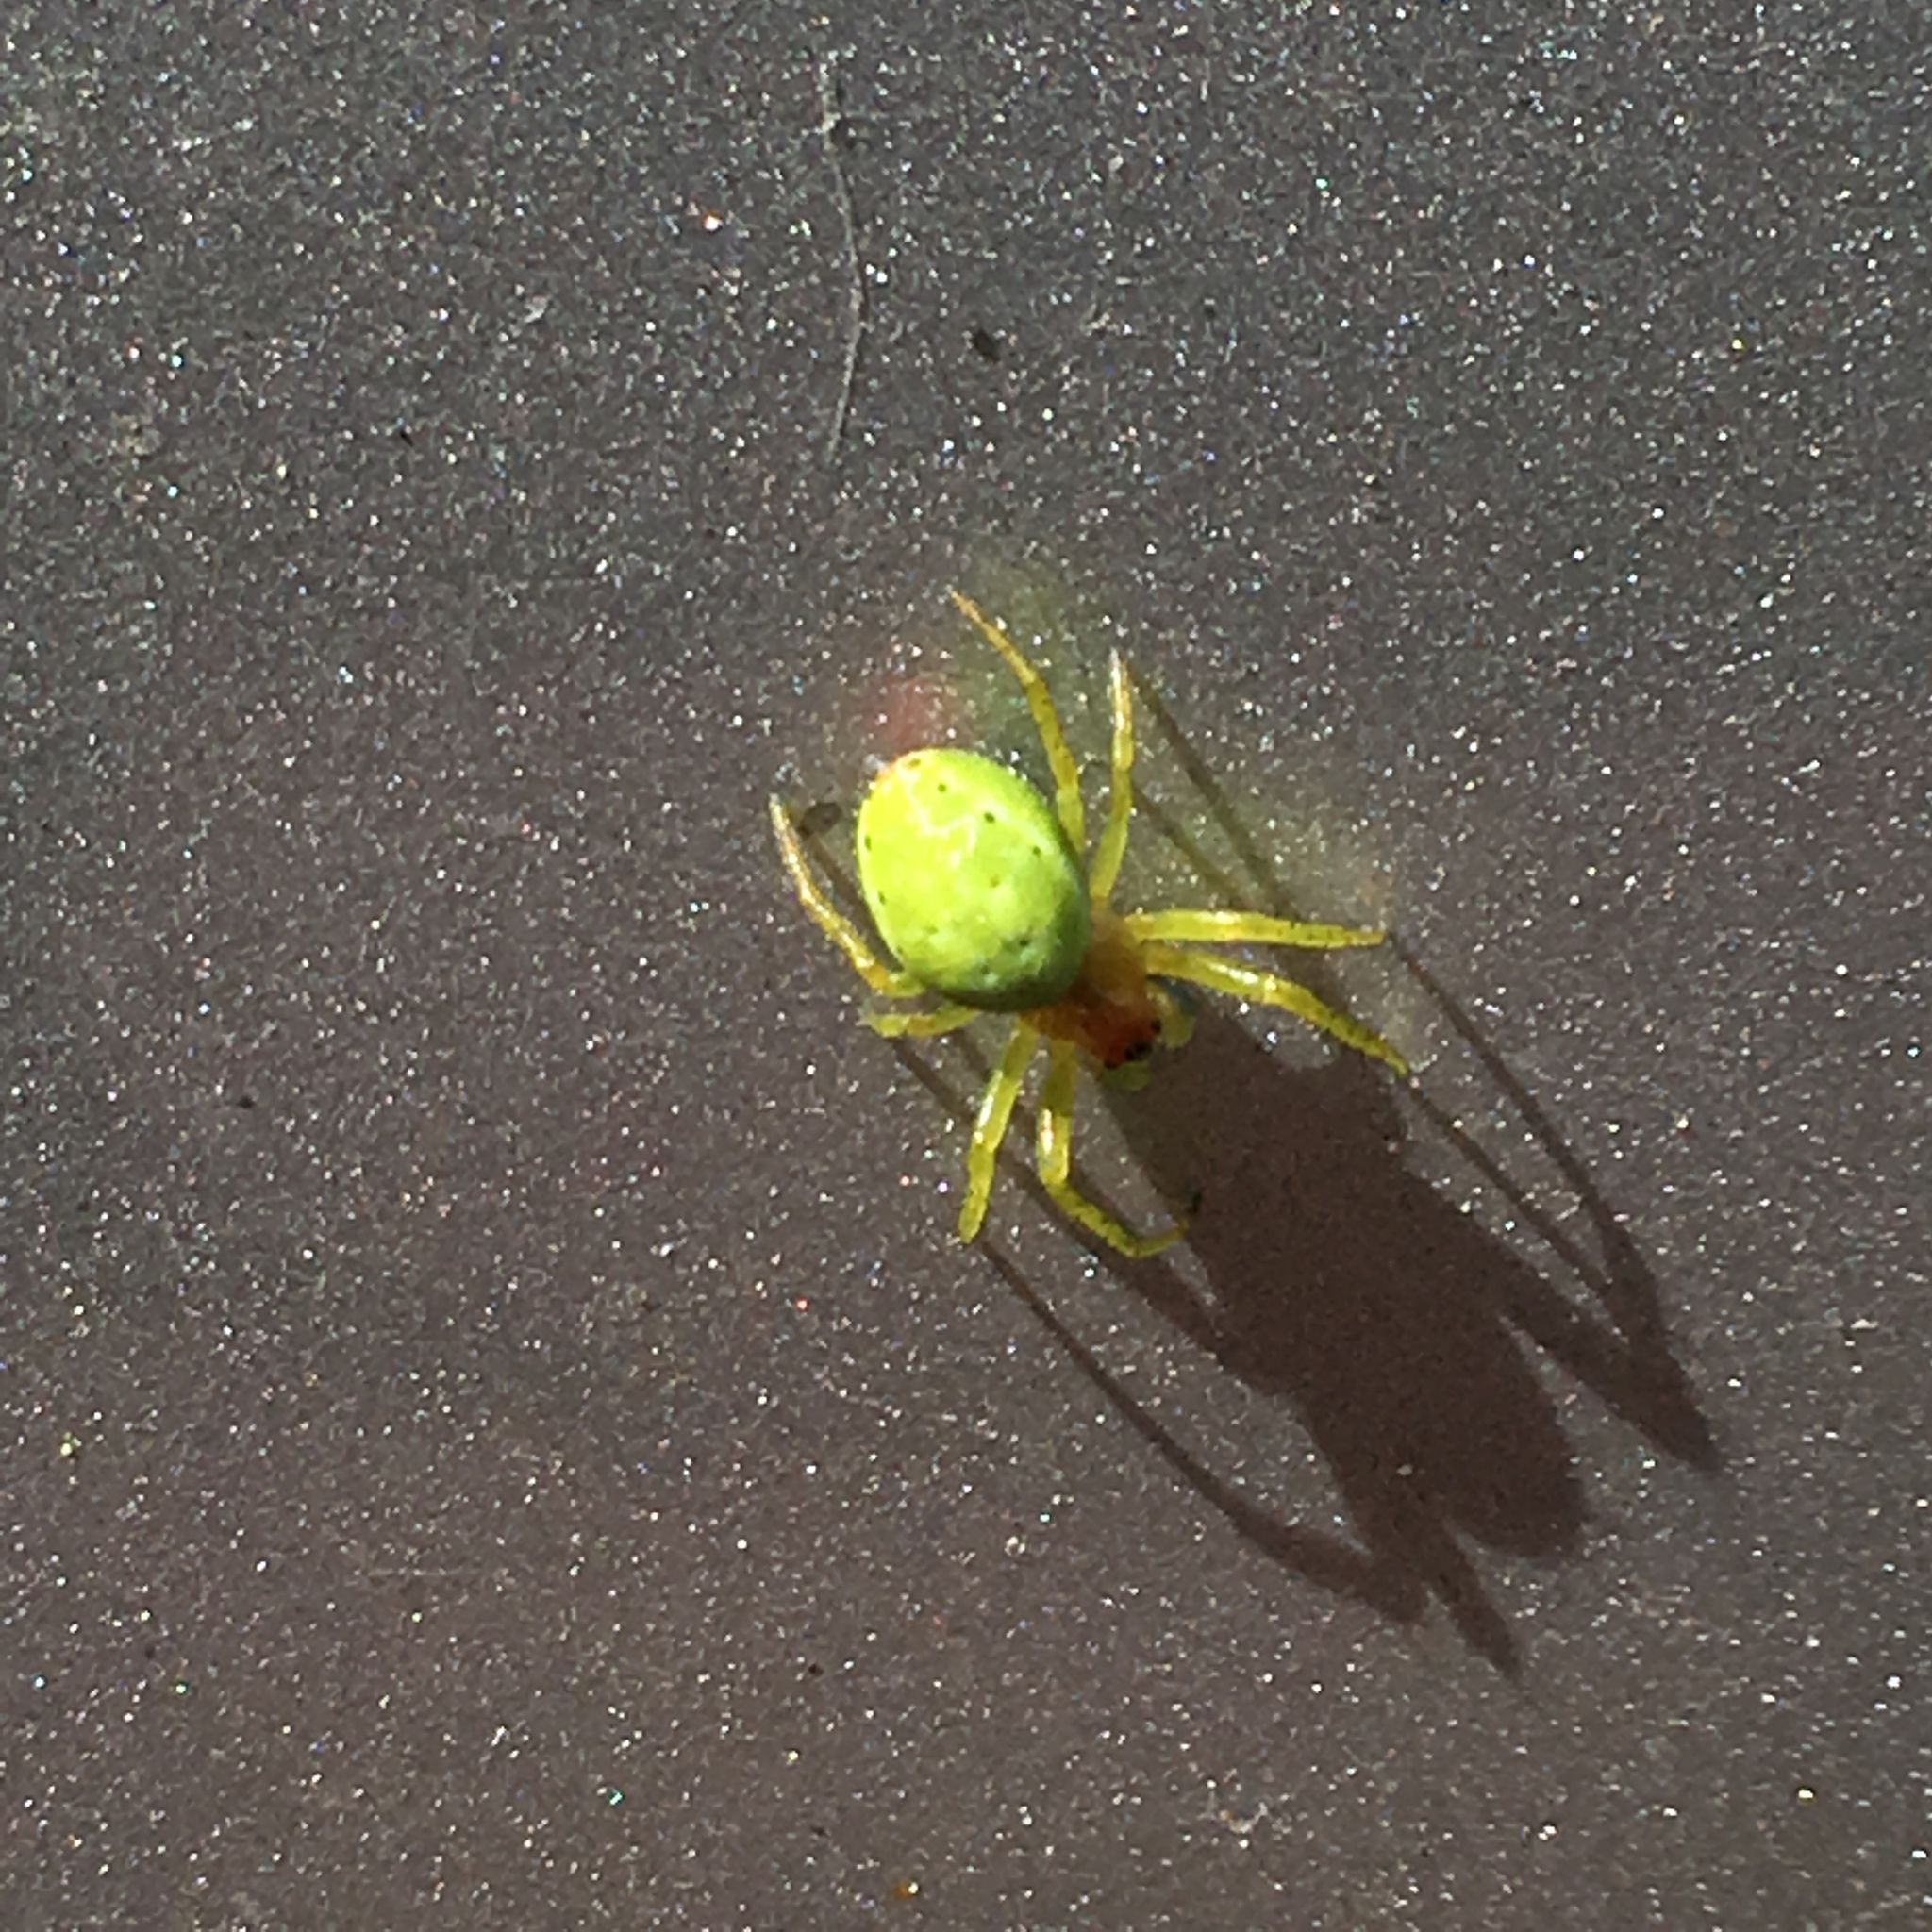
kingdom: Animalia
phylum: Arthropoda
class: Arachnida
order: Araneae
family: Araneidae
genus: Araniella
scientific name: Araniella cucurbitina
